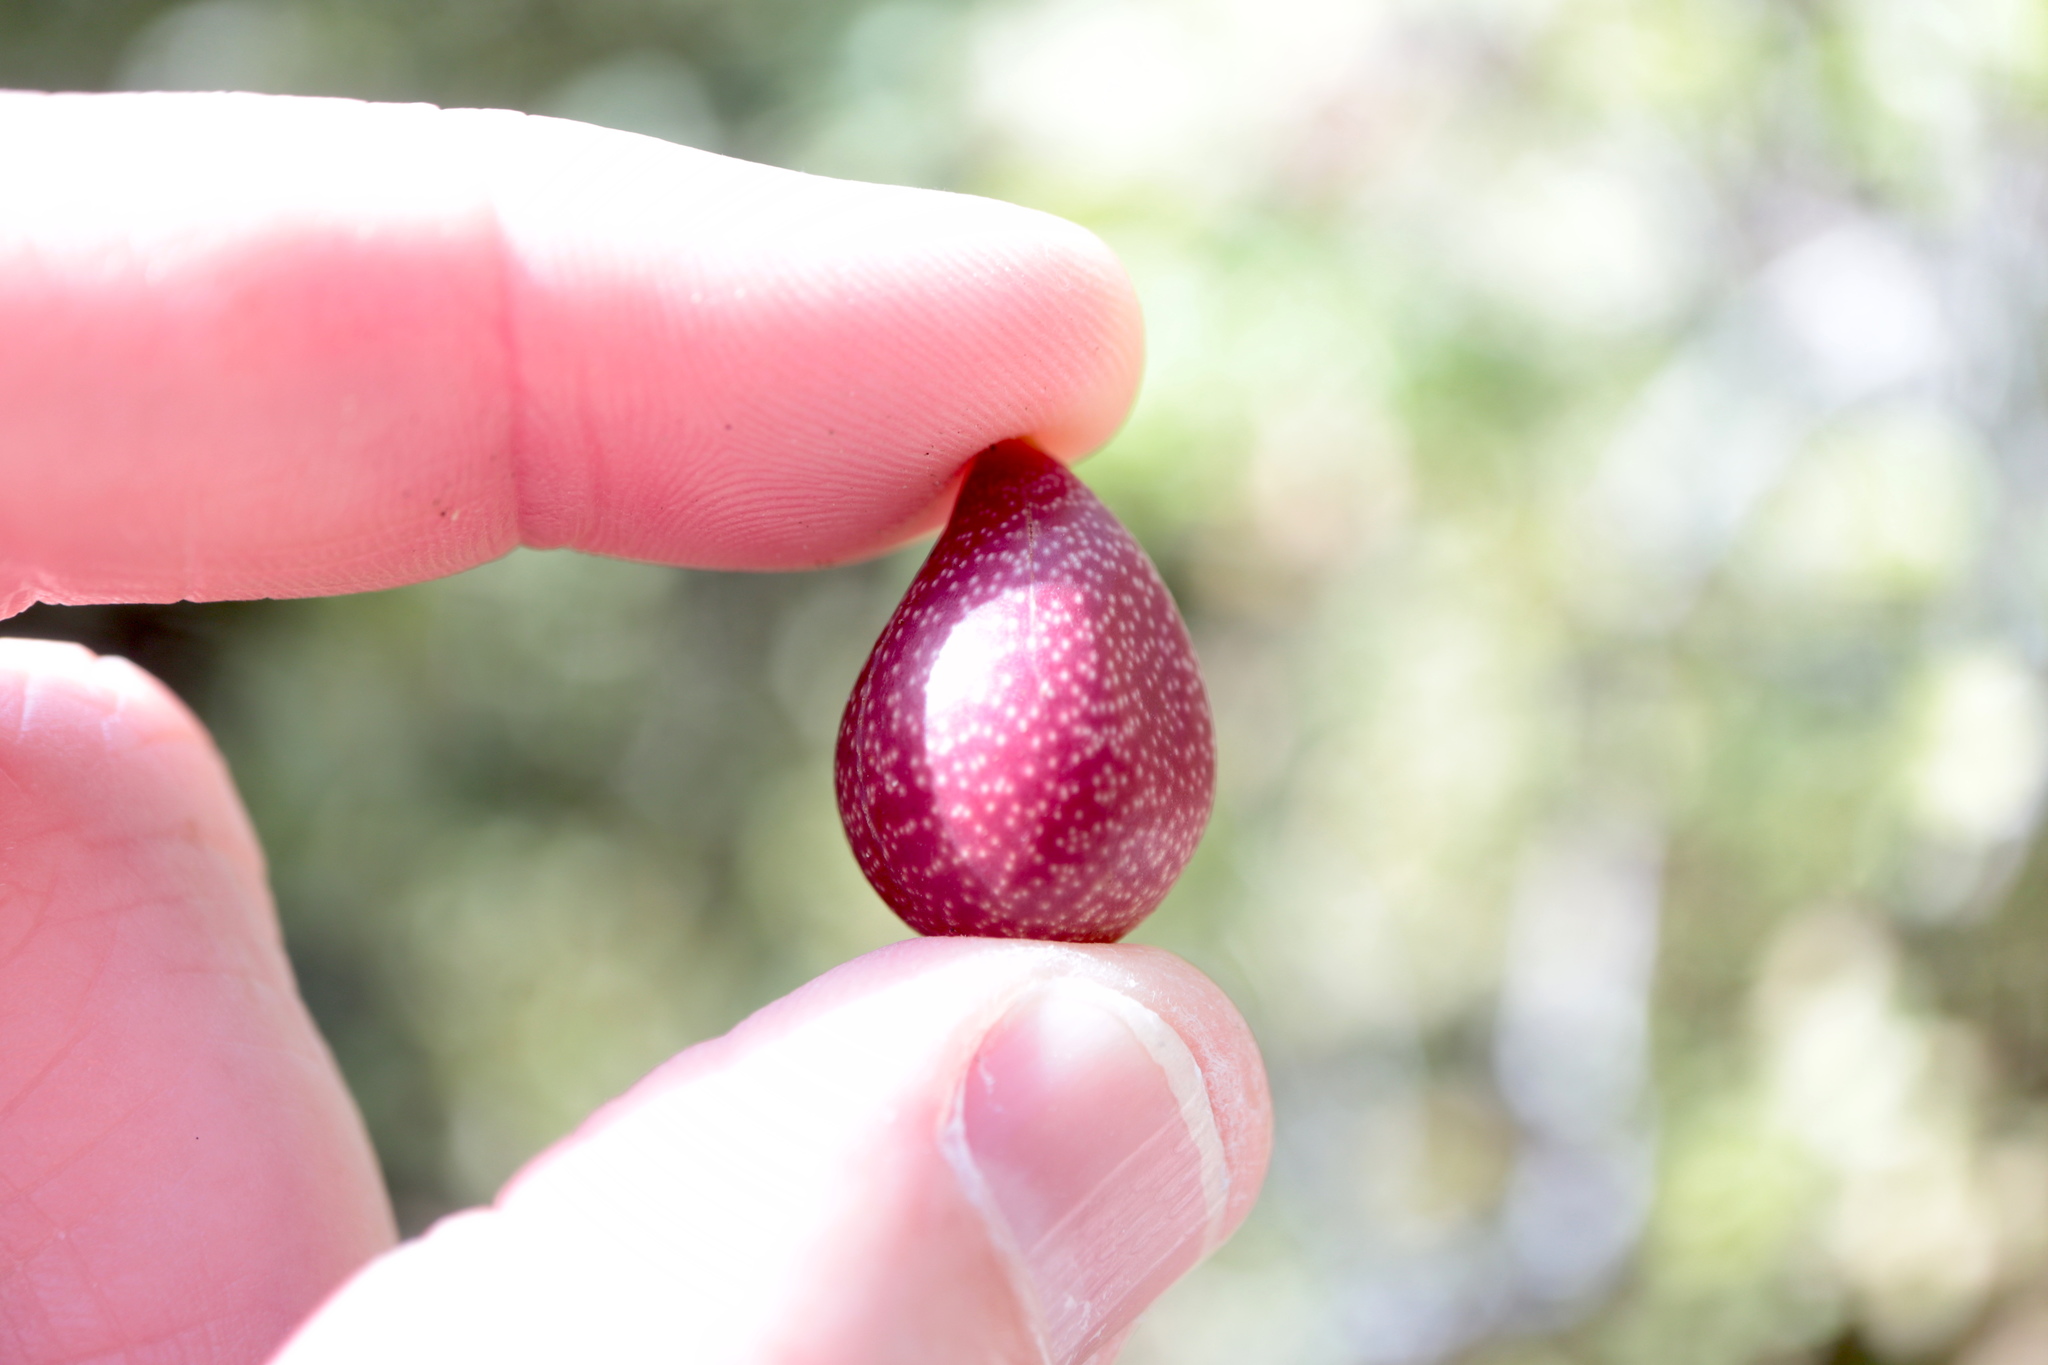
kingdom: Animalia
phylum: Arthropoda
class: Insecta
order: Hymenoptera
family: Cynipidae
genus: Kokkocynips
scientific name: Kokkocynips imbricariae
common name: Banded bullet gall wasp
